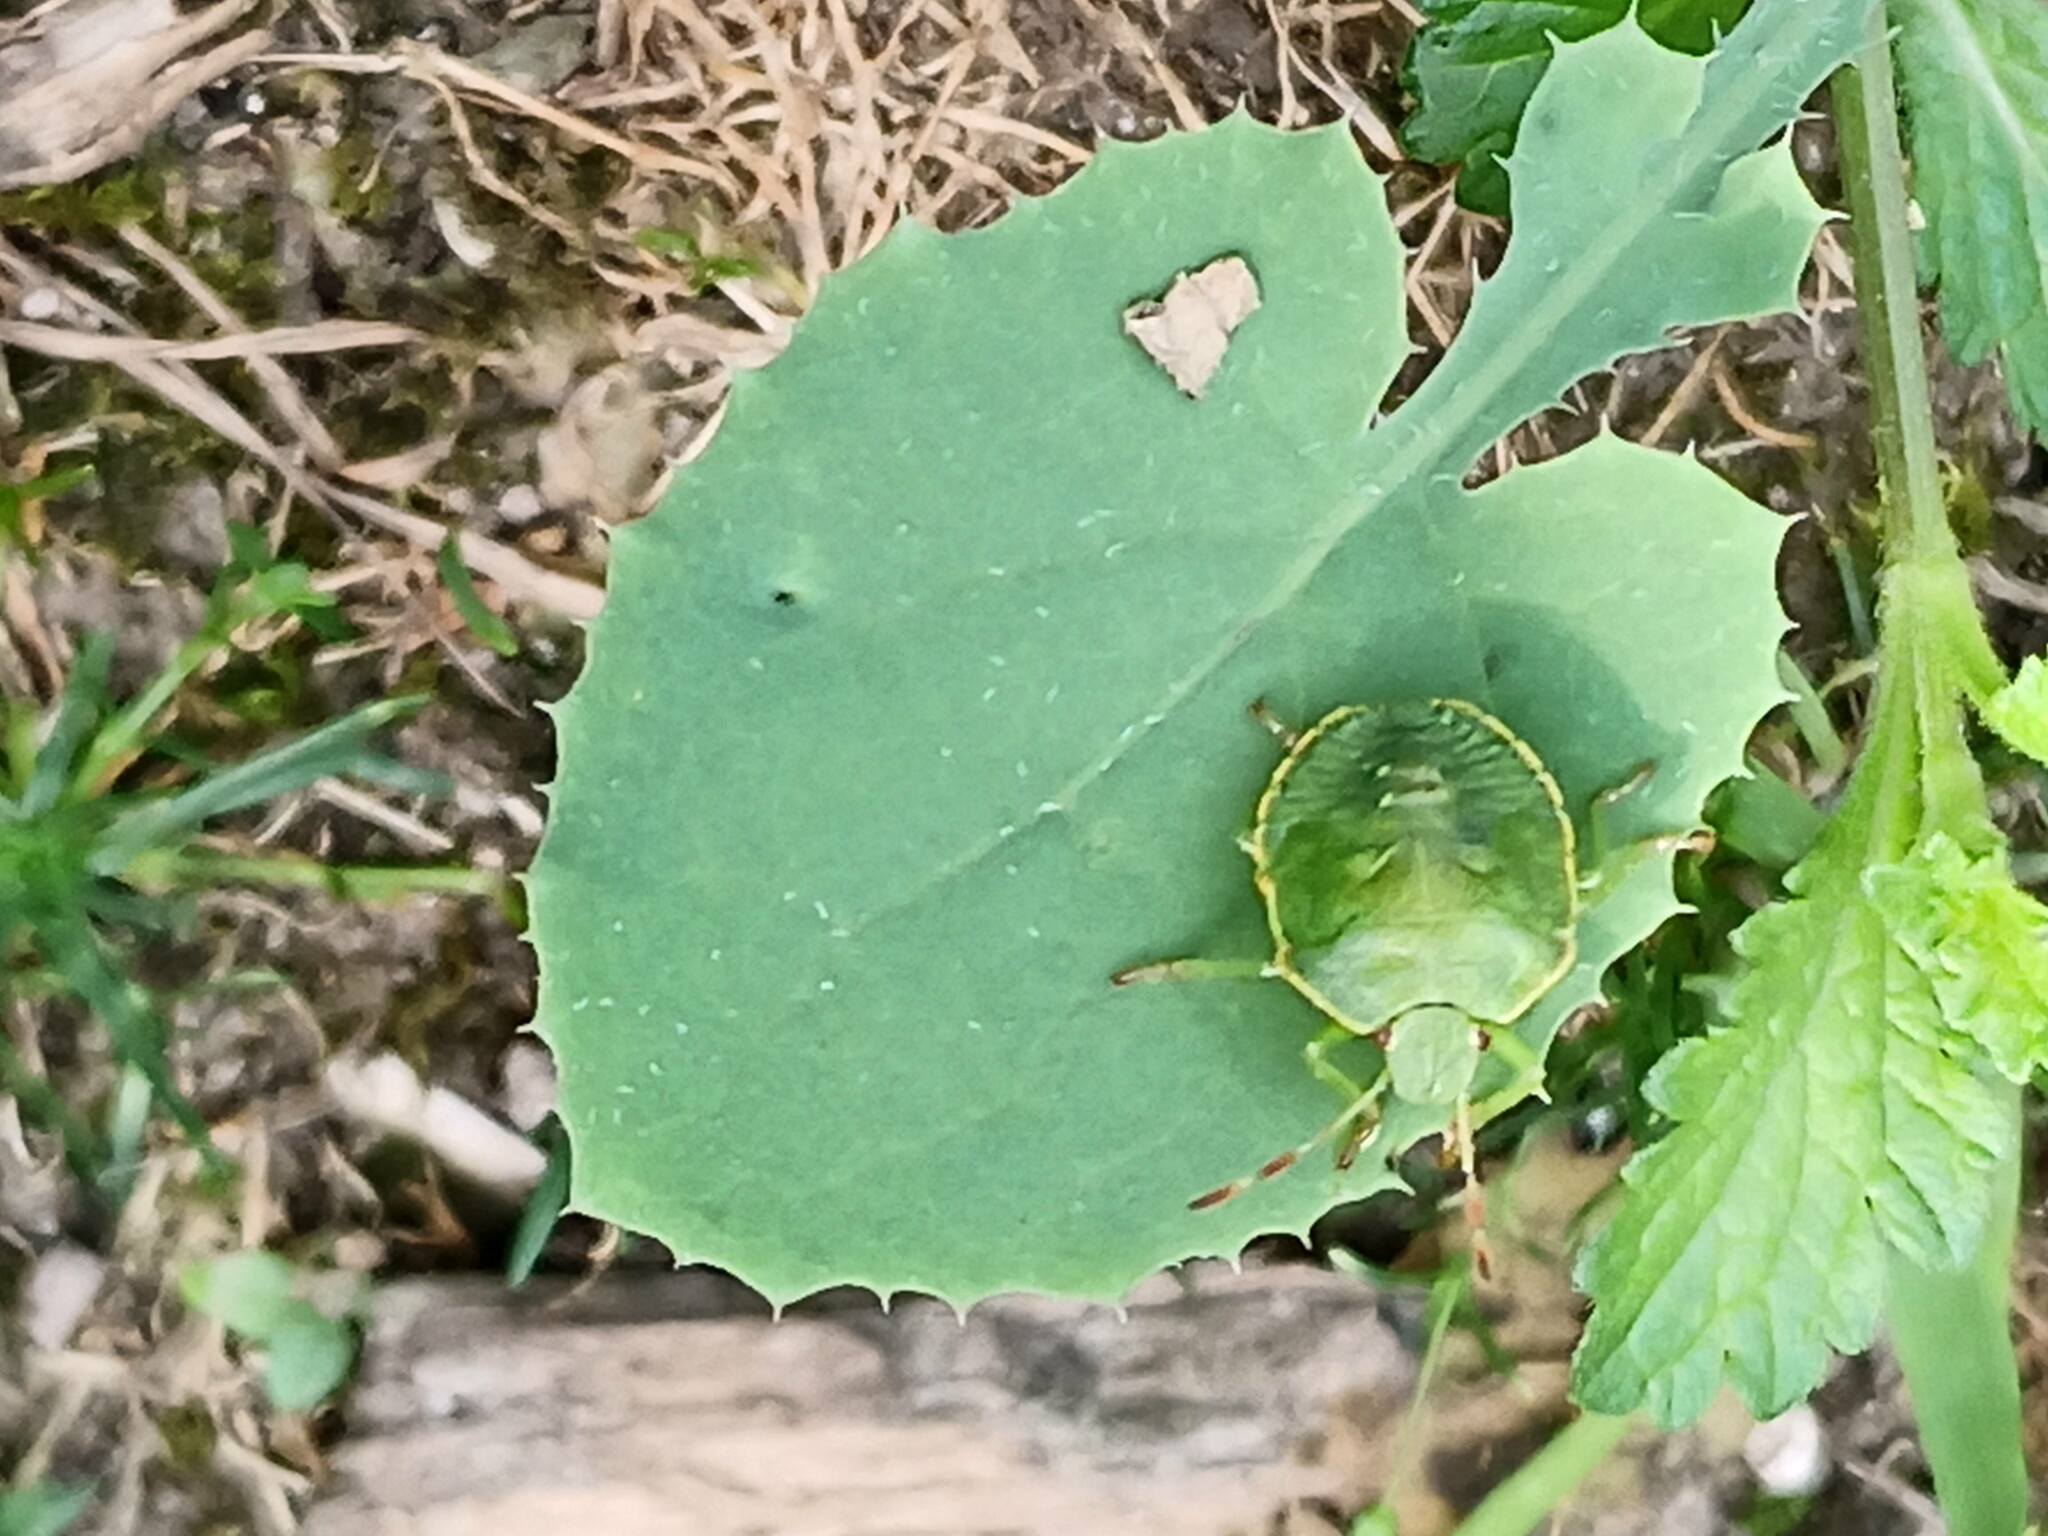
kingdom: Animalia
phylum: Arthropoda
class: Insecta
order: Hemiptera
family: Pentatomidae
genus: Palomena
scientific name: Palomena prasina
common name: Green shieldbug
